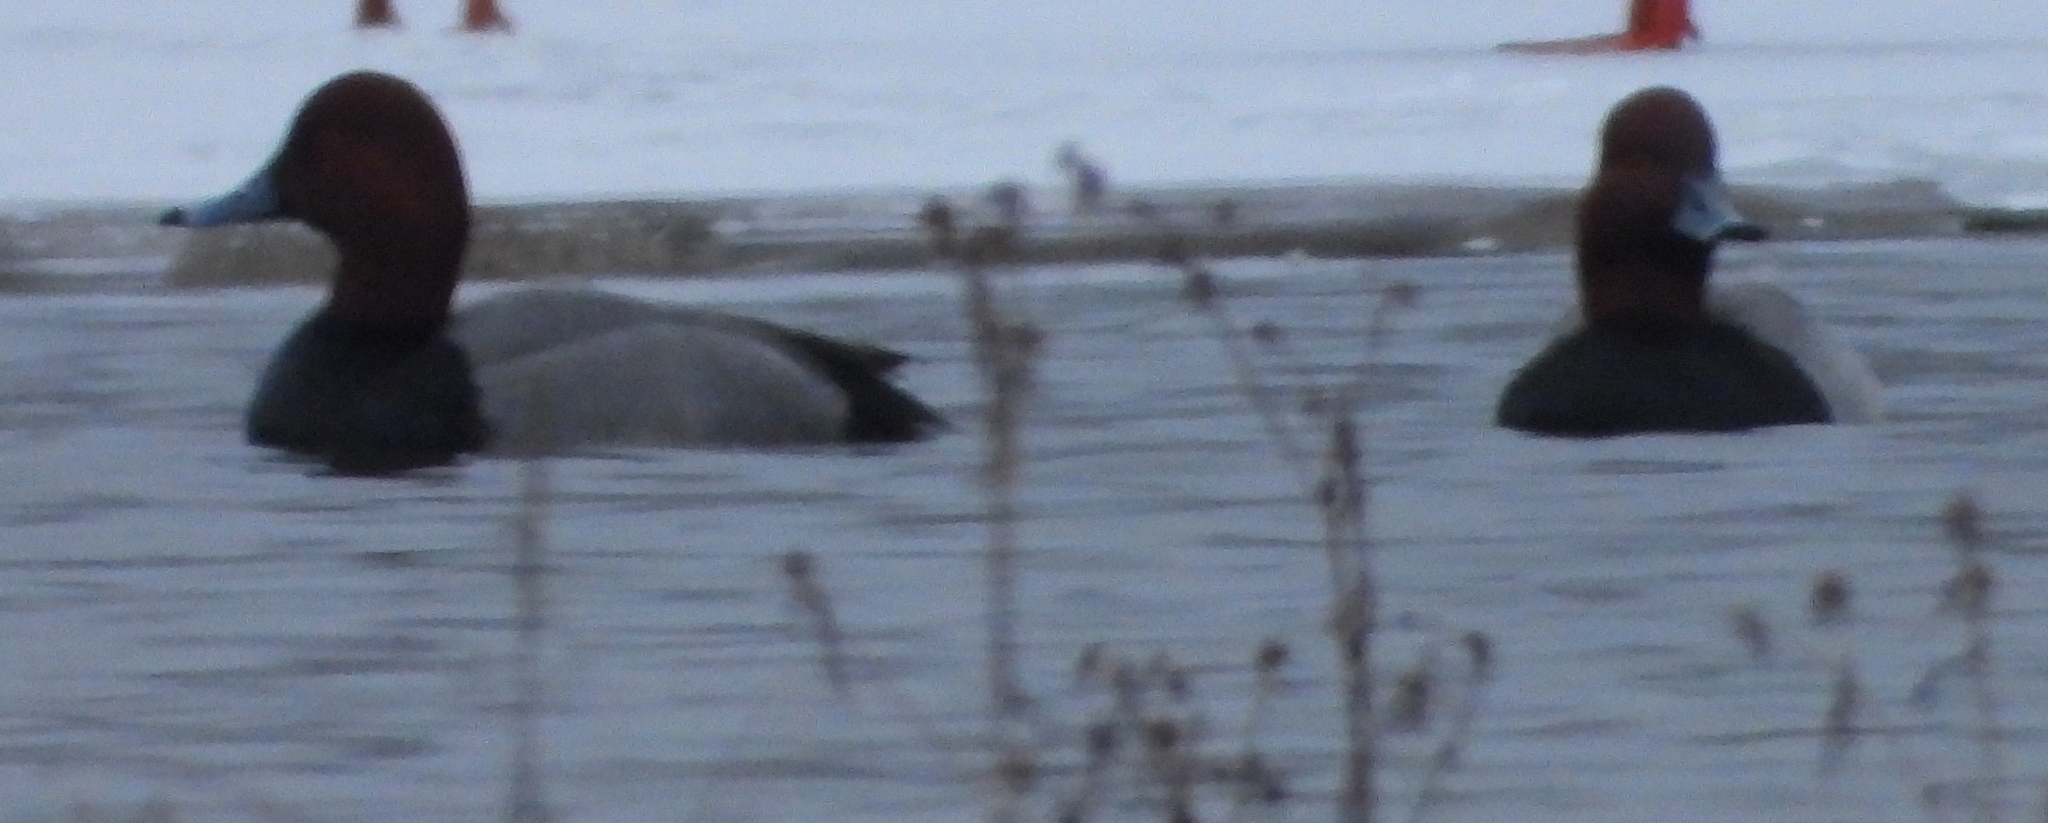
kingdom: Animalia
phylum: Chordata
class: Aves
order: Anseriformes
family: Anatidae
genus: Aythya
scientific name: Aythya americana
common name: Redhead
